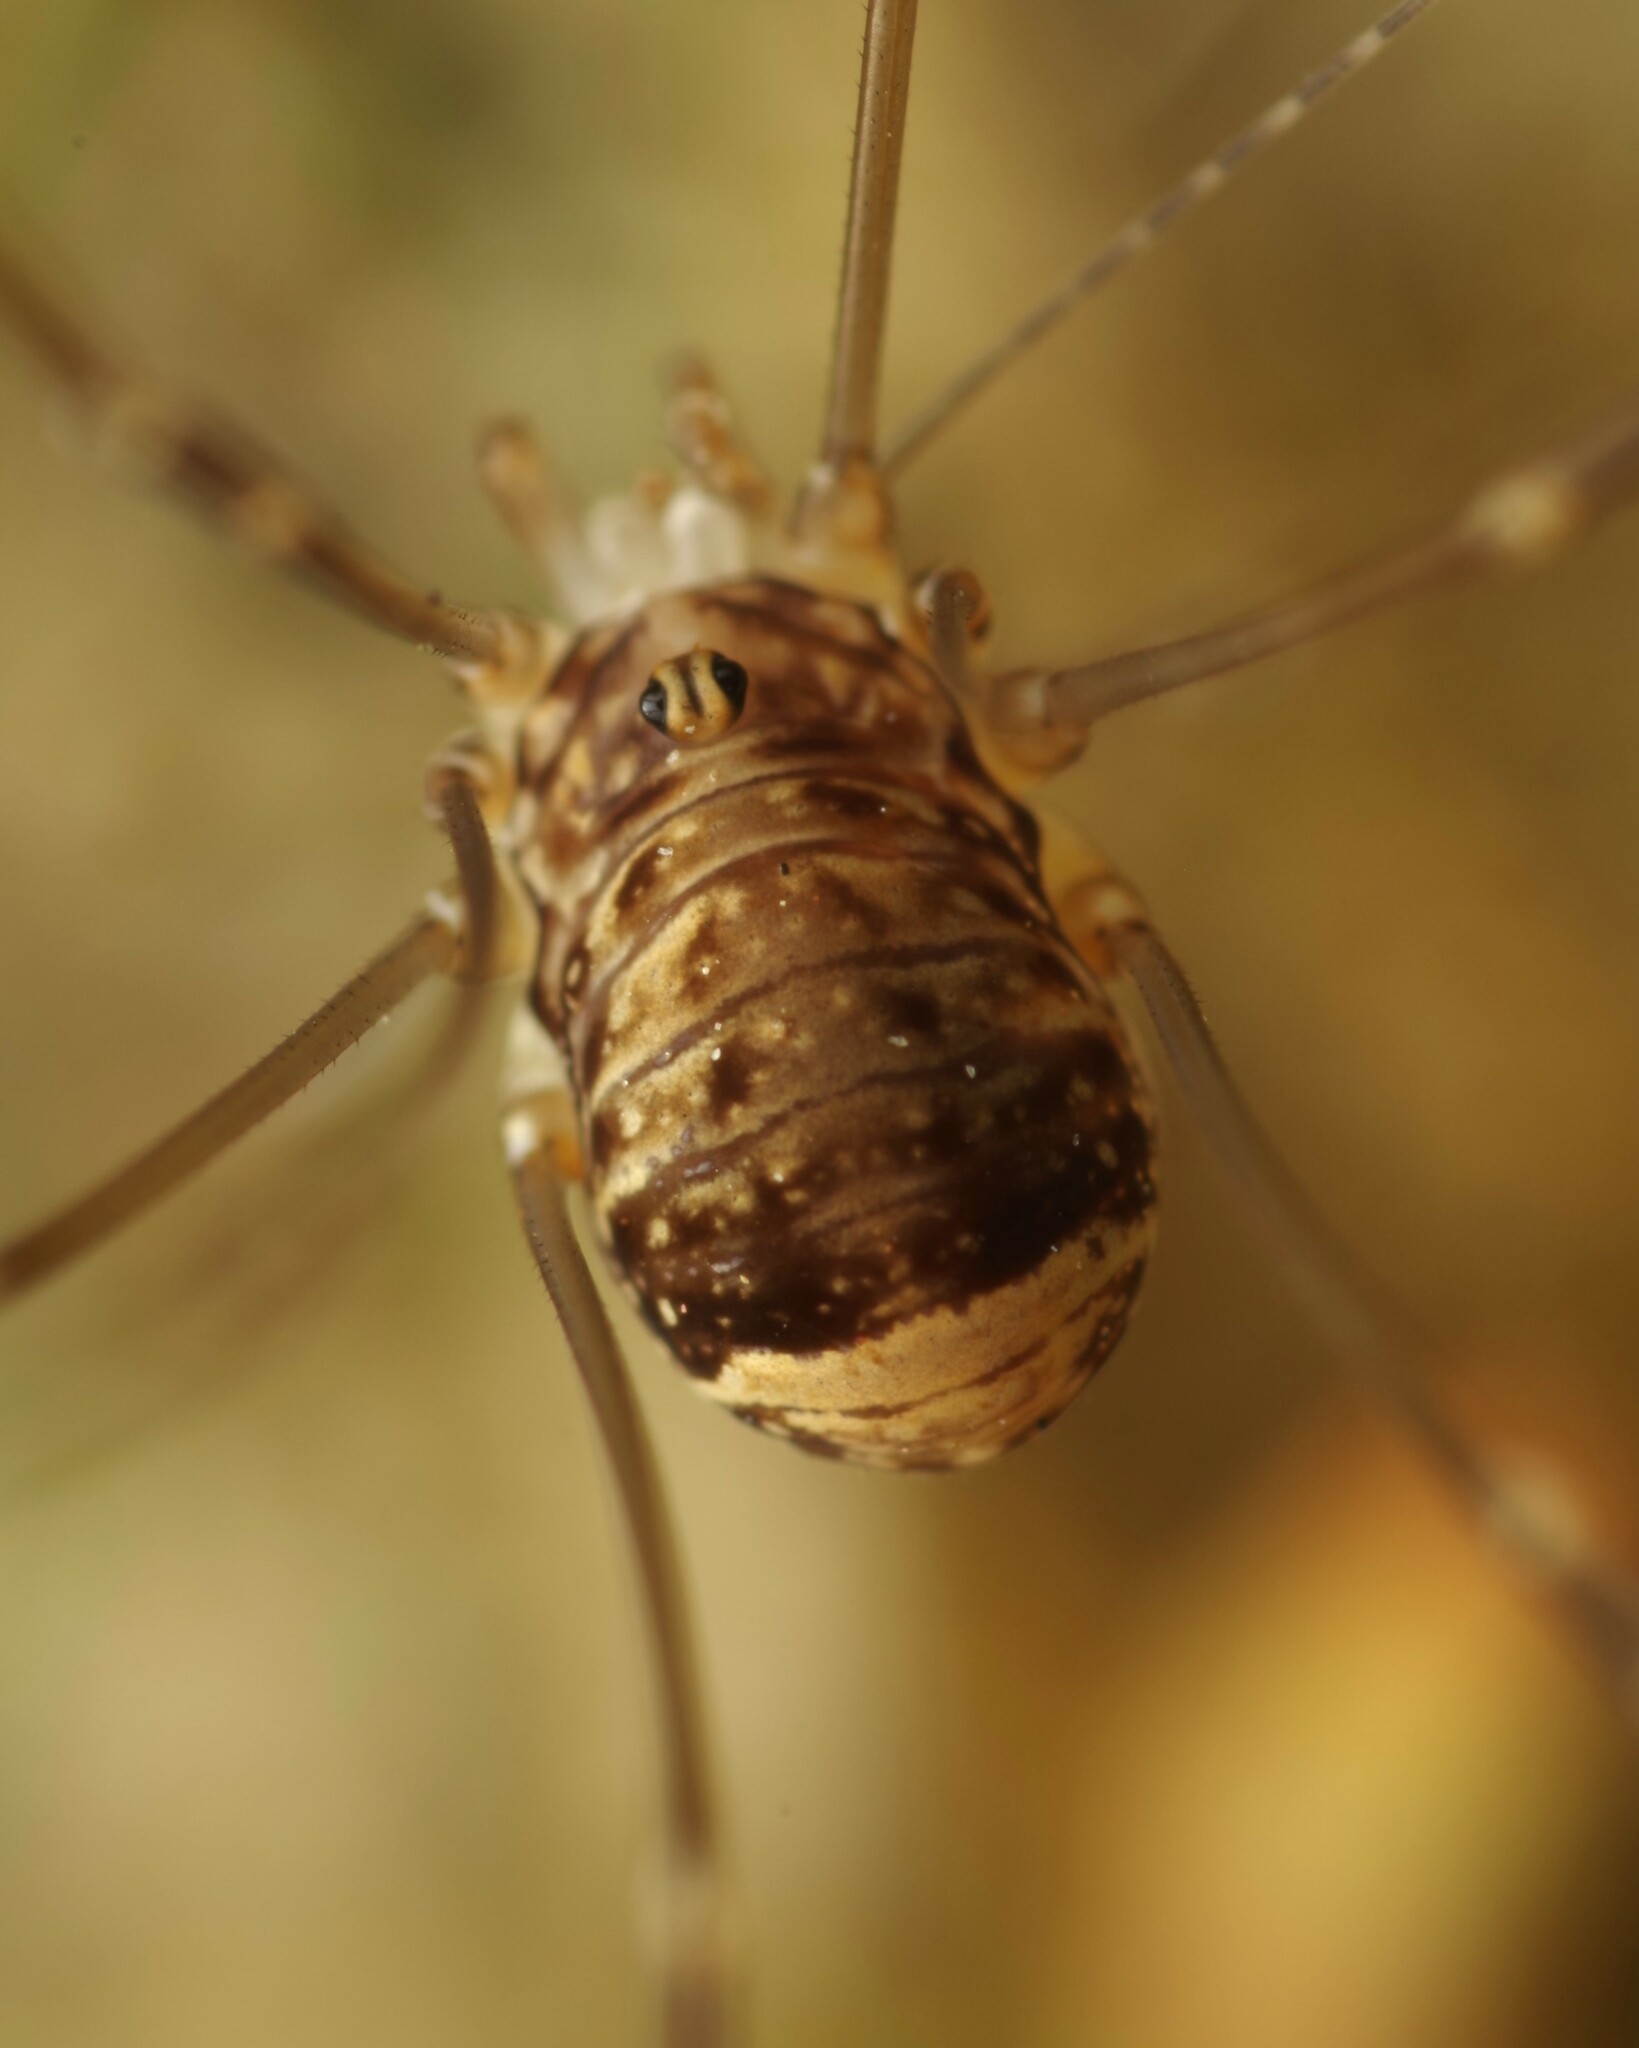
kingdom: Animalia
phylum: Arthropoda
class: Arachnida
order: Opiliones
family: Sclerosomatidae
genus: Leiobunum
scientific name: Leiobunum blackwalli
